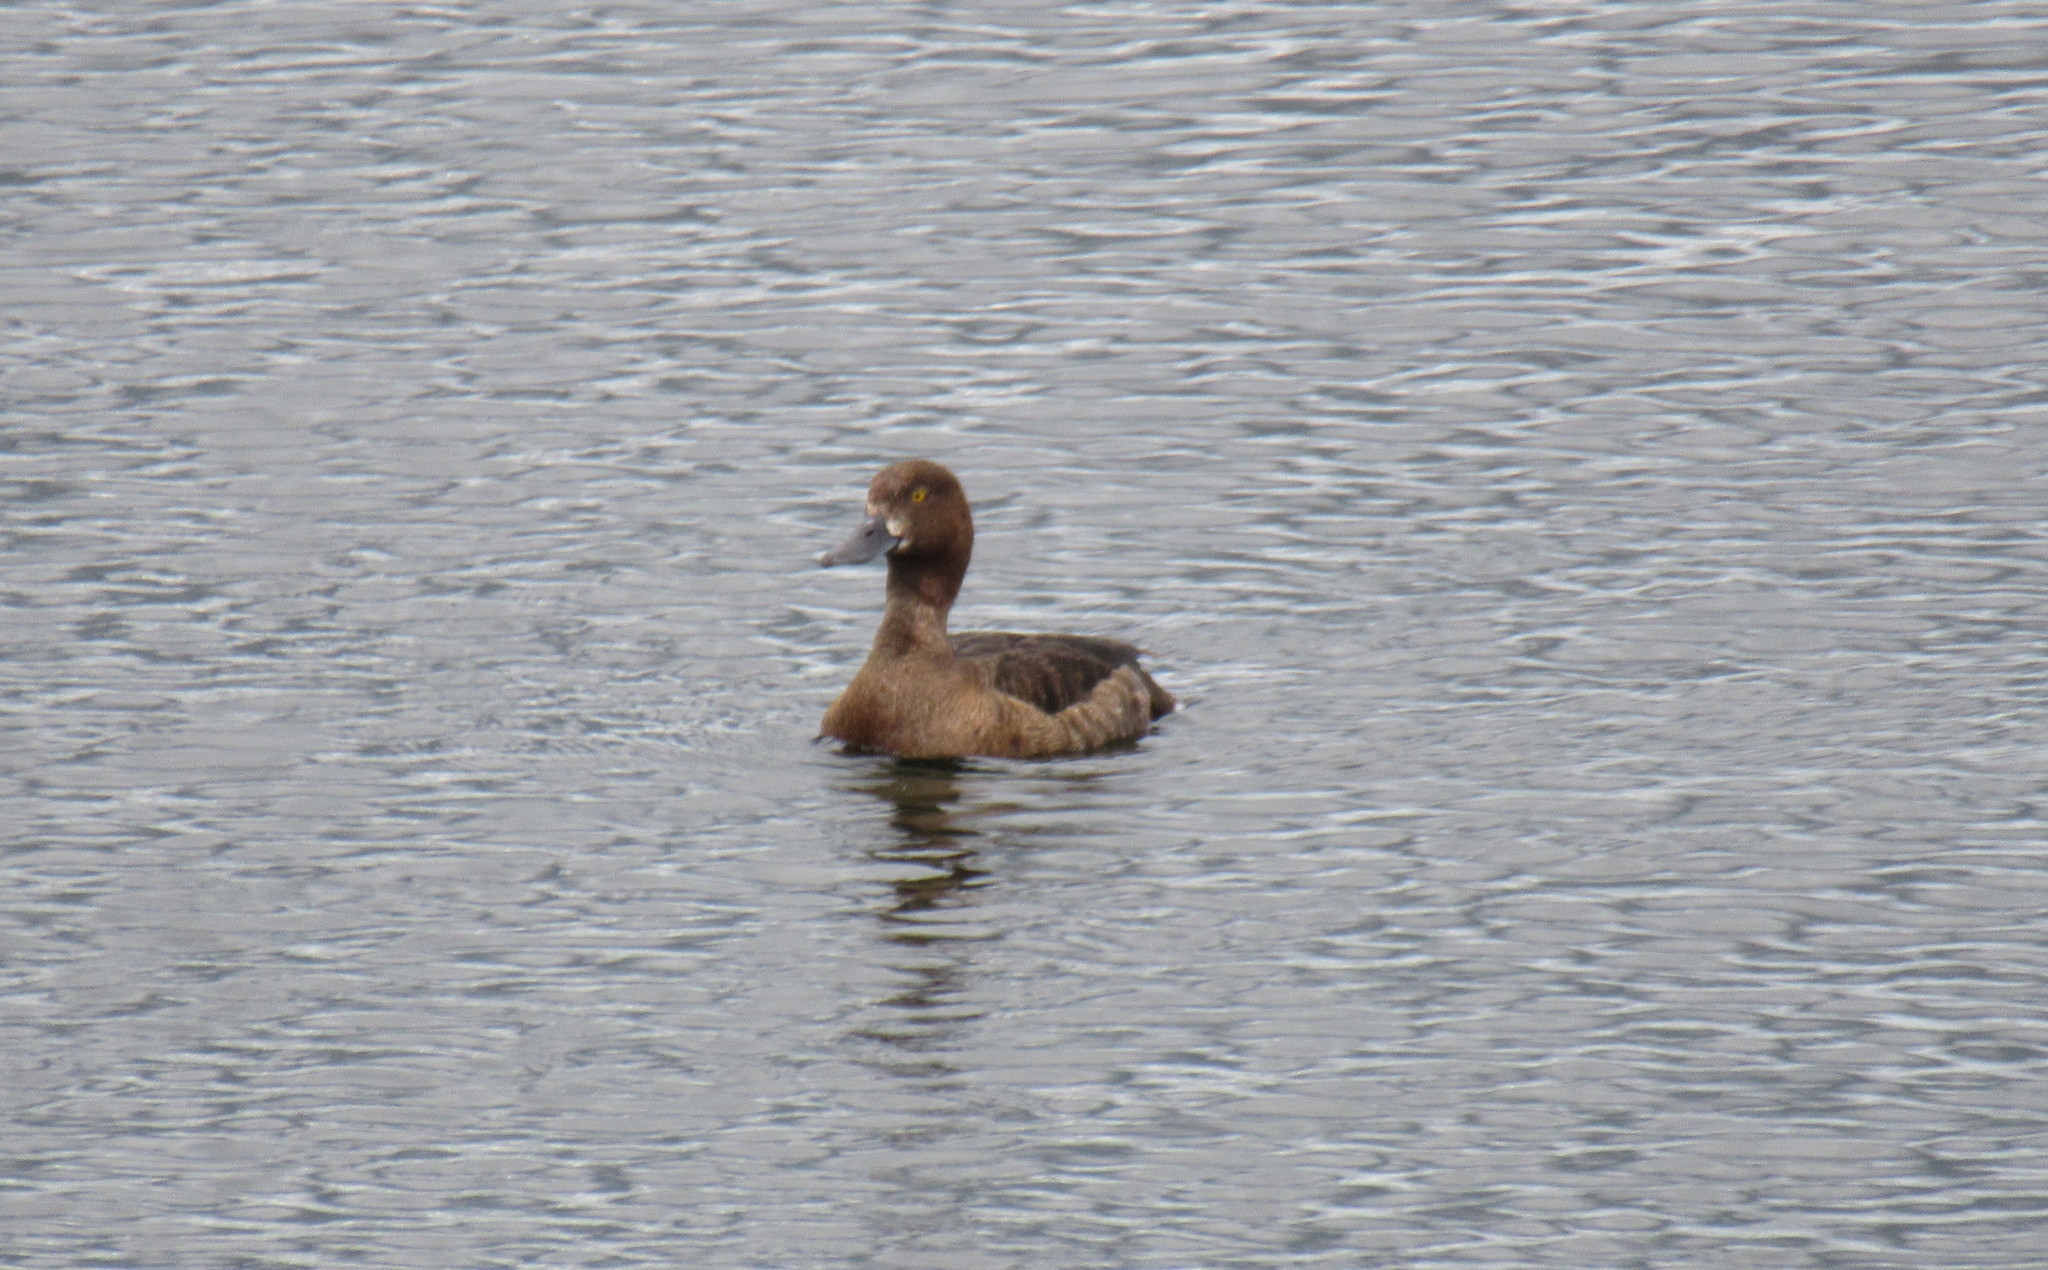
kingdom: Animalia
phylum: Chordata
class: Aves
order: Anseriformes
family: Anatidae
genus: Aythya
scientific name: Aythya fuligula
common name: Tufted duck
